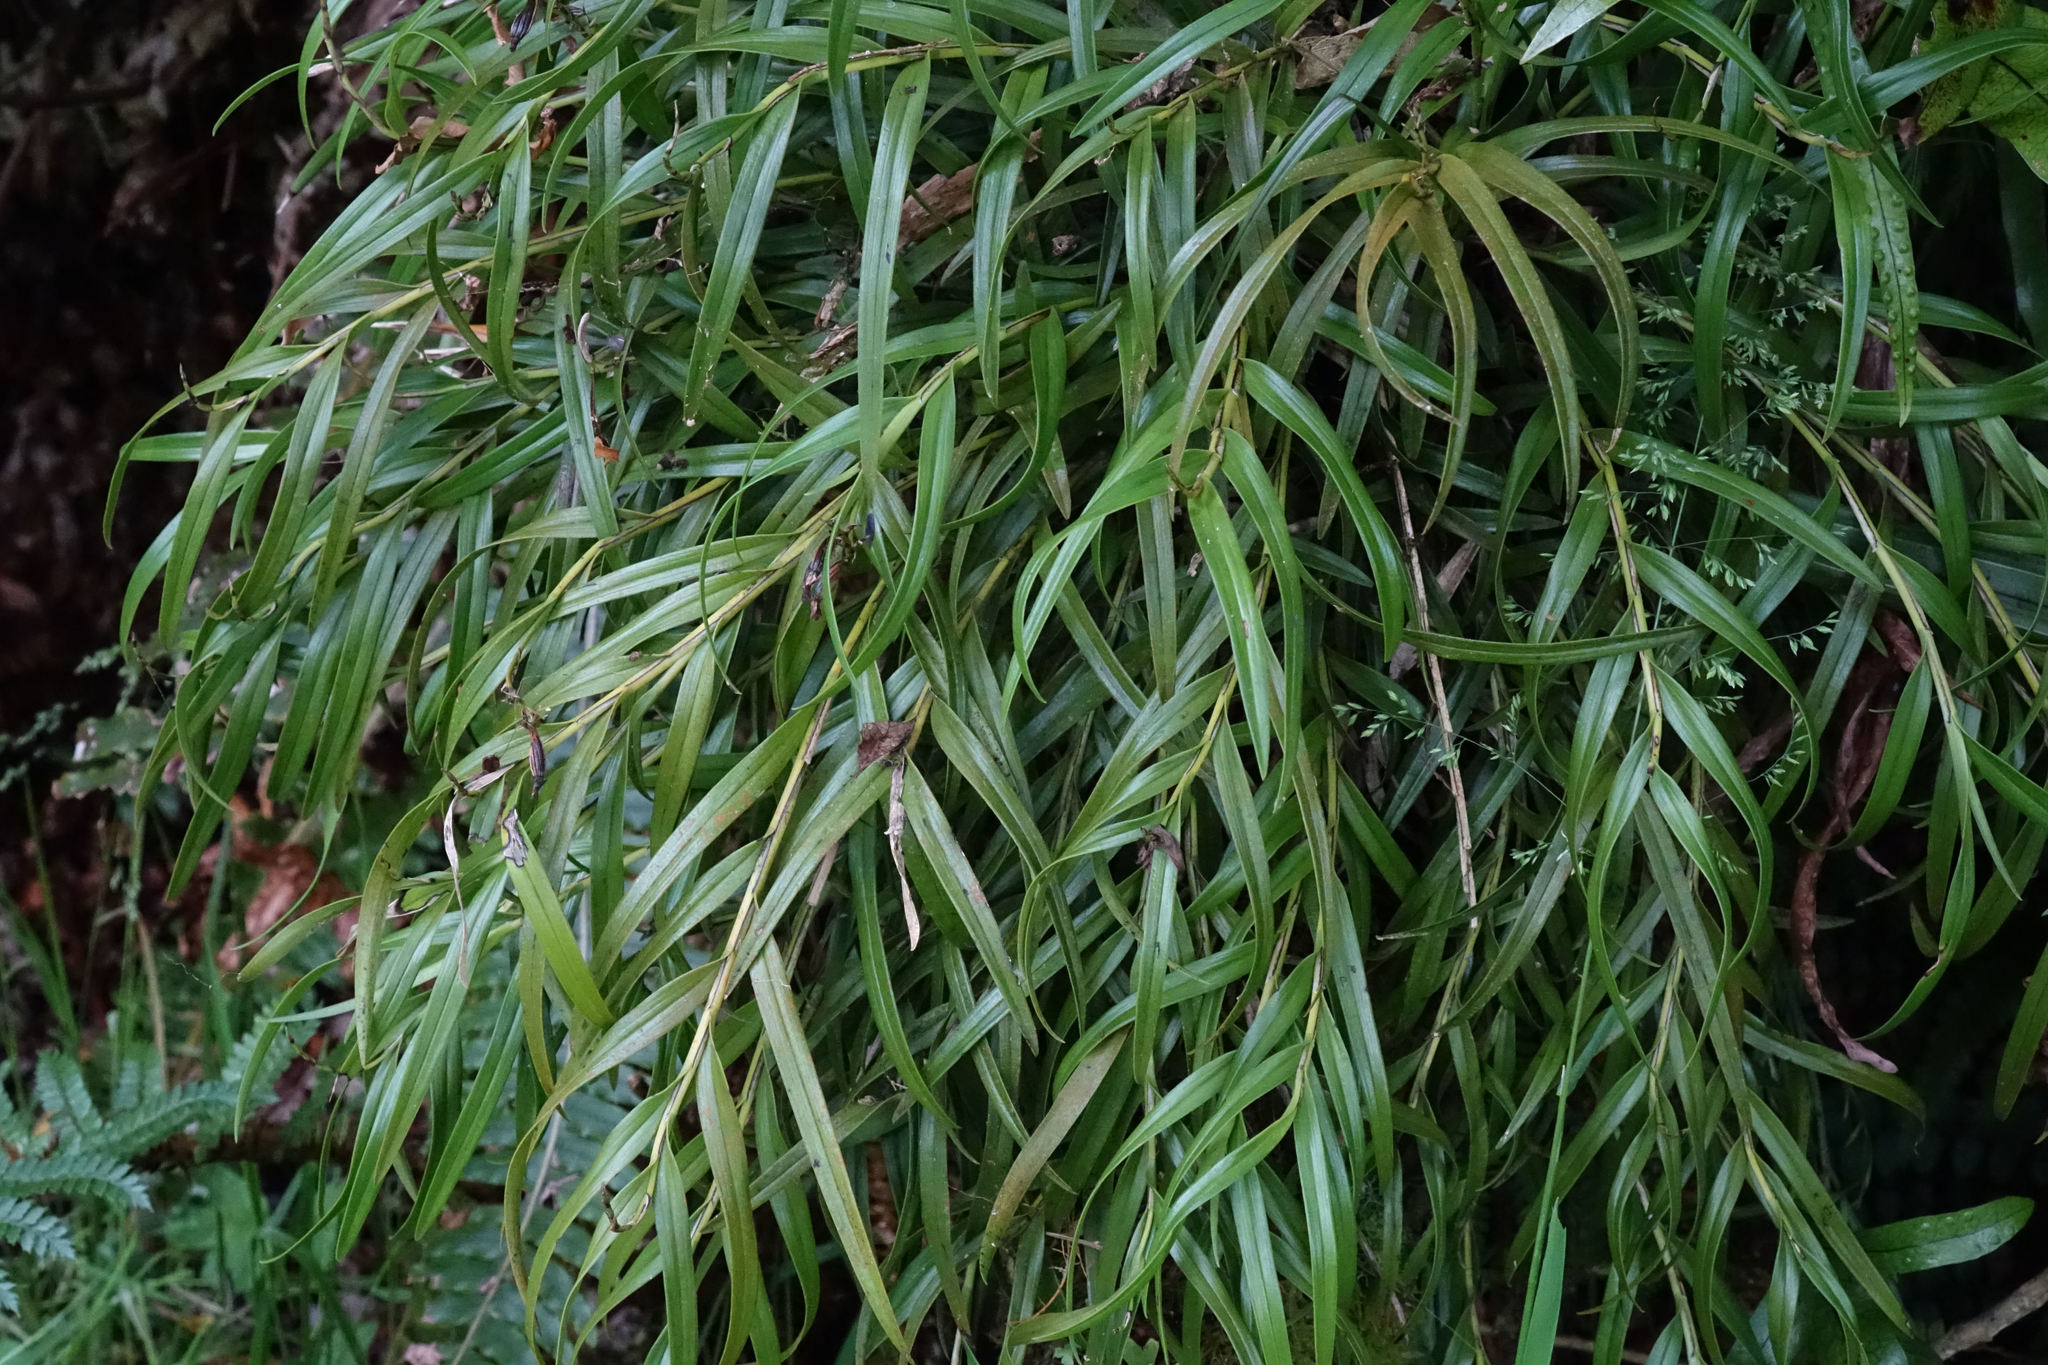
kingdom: Plantae
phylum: Tracheophyta
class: Liliopsida
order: Asparagales
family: Orchidaceae
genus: Earina
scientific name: Earina autumnalis
